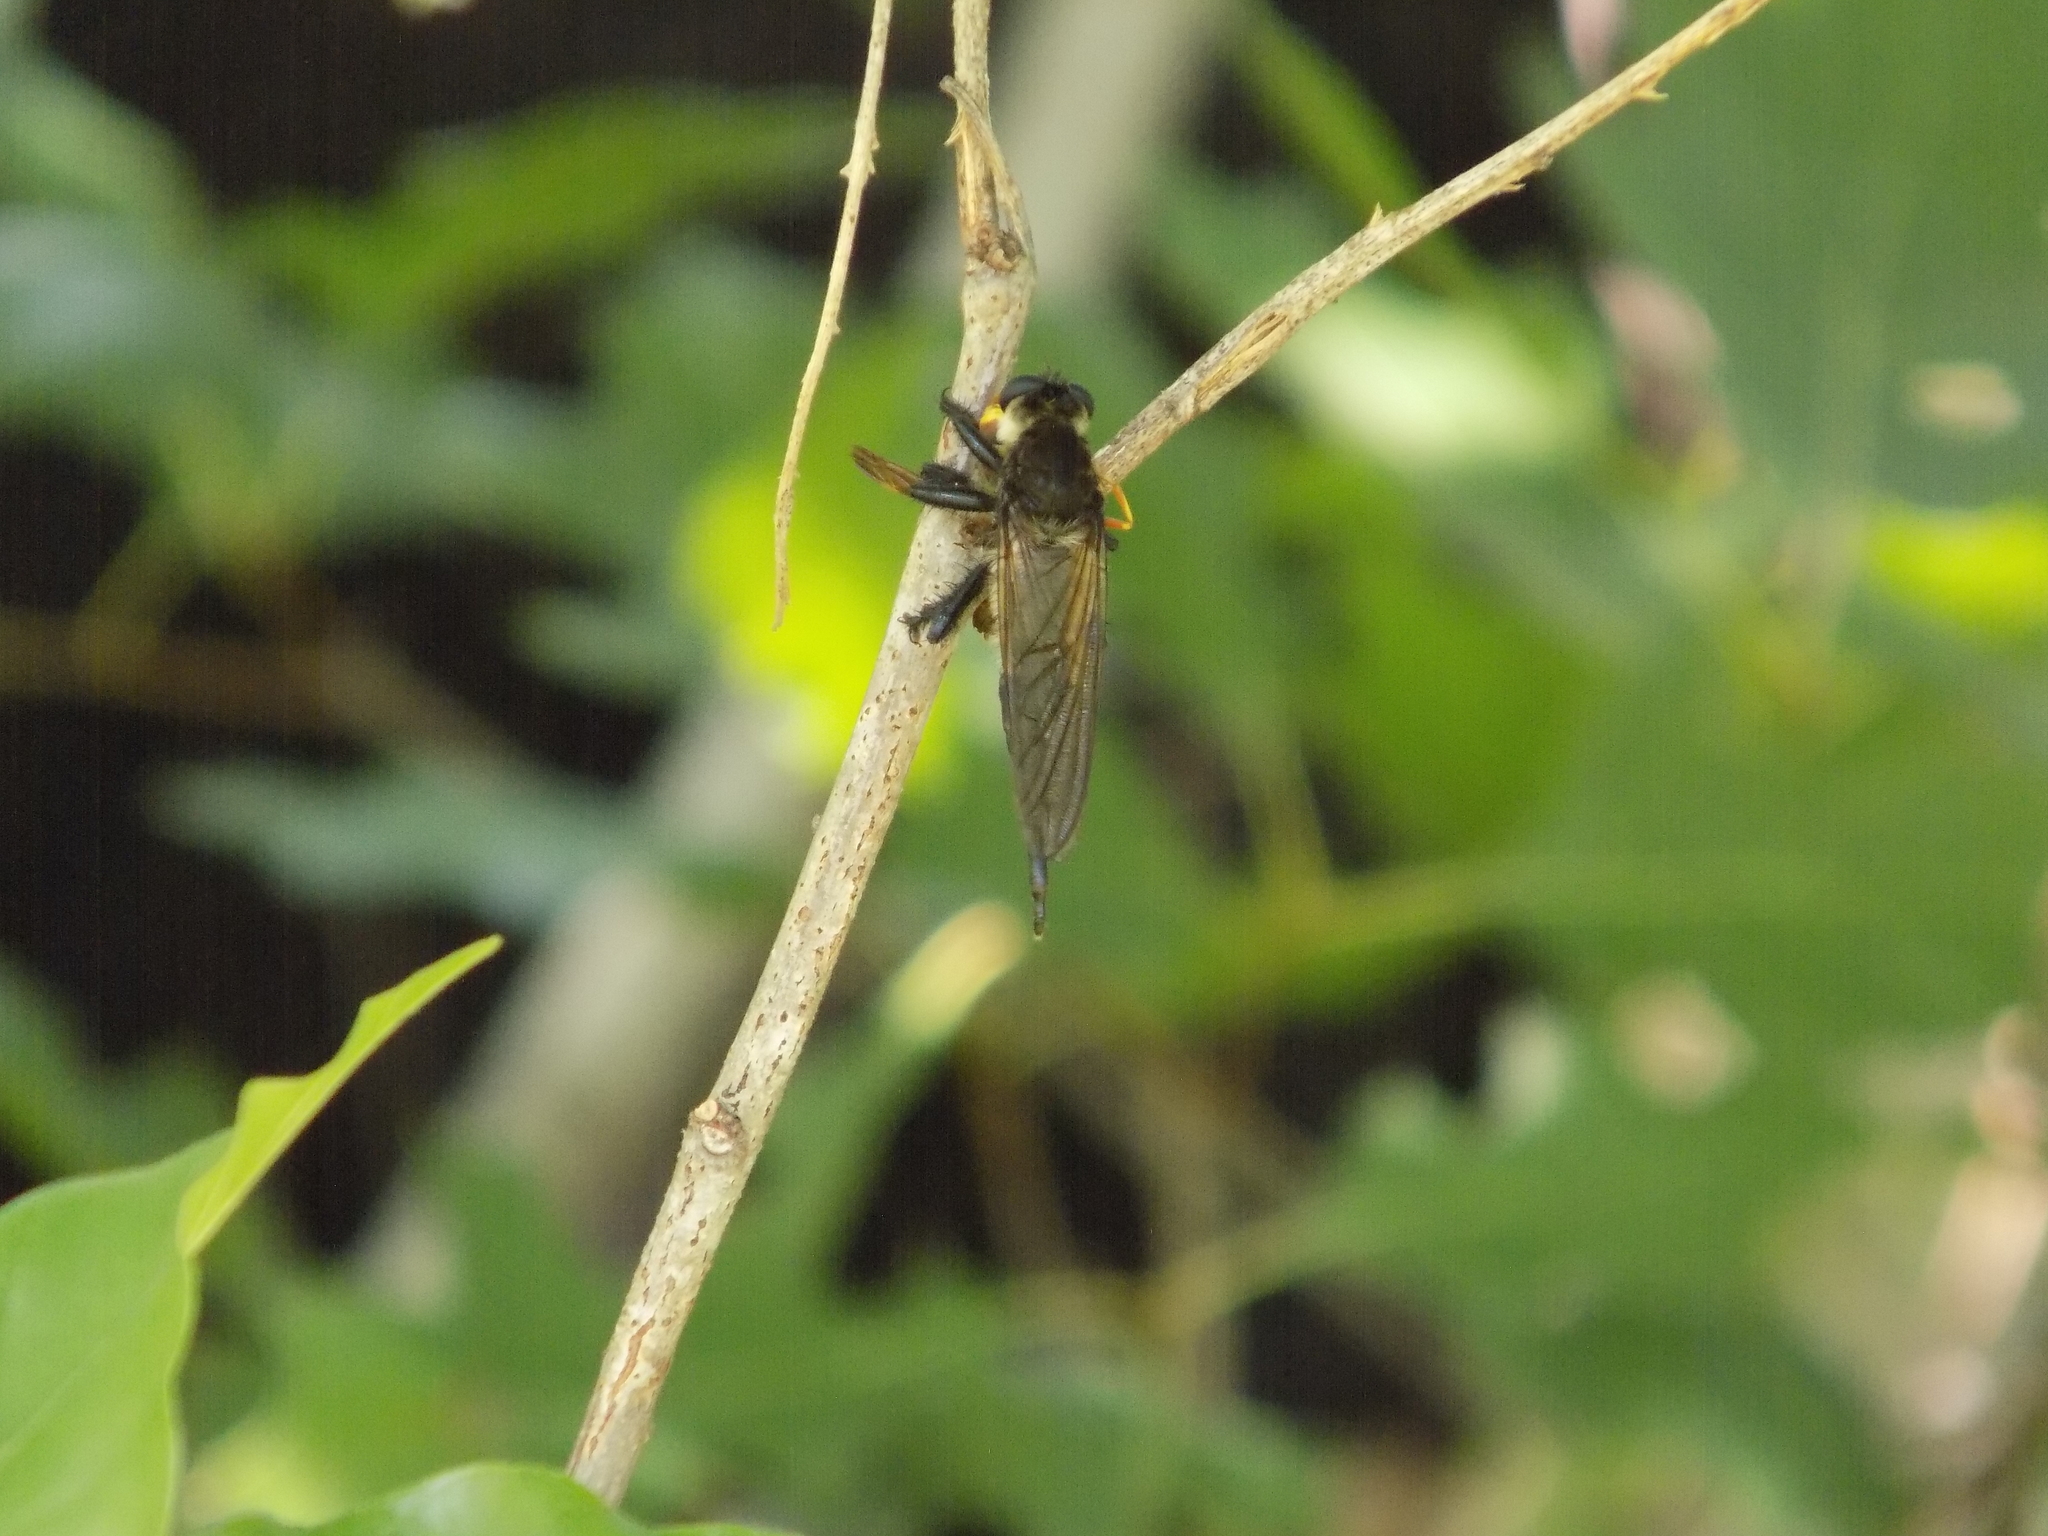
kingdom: Animalia
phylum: Arthropoda
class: Insecta
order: Diptera
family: Asilidae
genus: Promachus
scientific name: Promachus painteri
